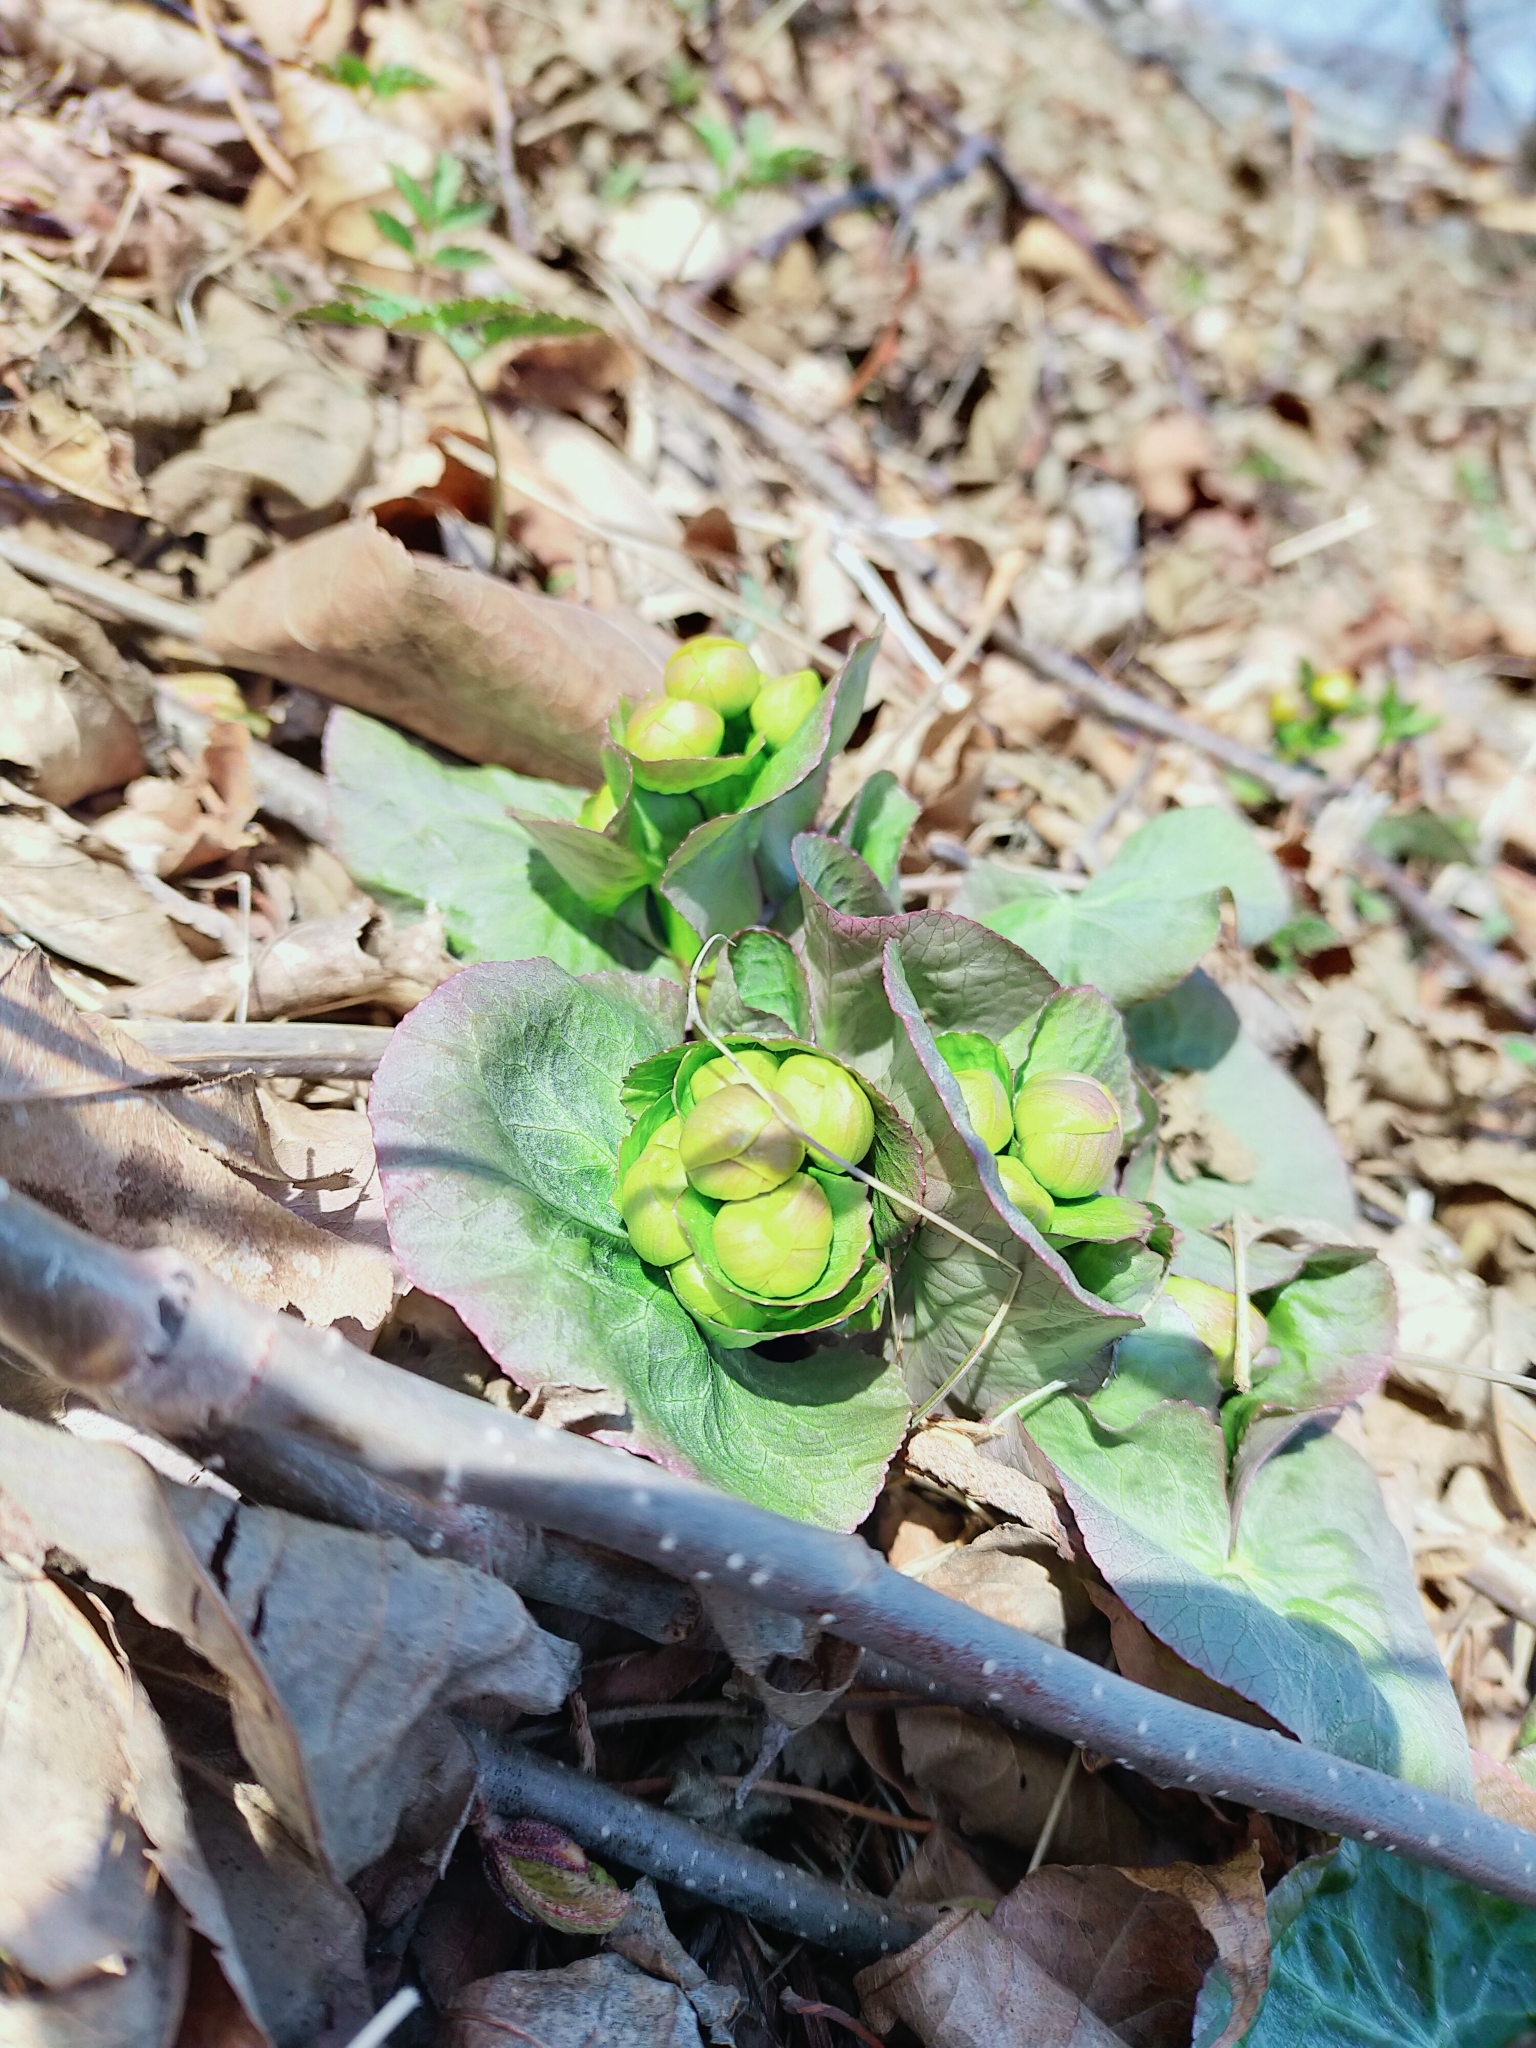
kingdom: Plantae
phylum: Tracheophyta
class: Magnoliopsida
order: Ranunculales
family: Ranunculaceae
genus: Caltha
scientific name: Caltha palustris
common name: Marsh marigold
